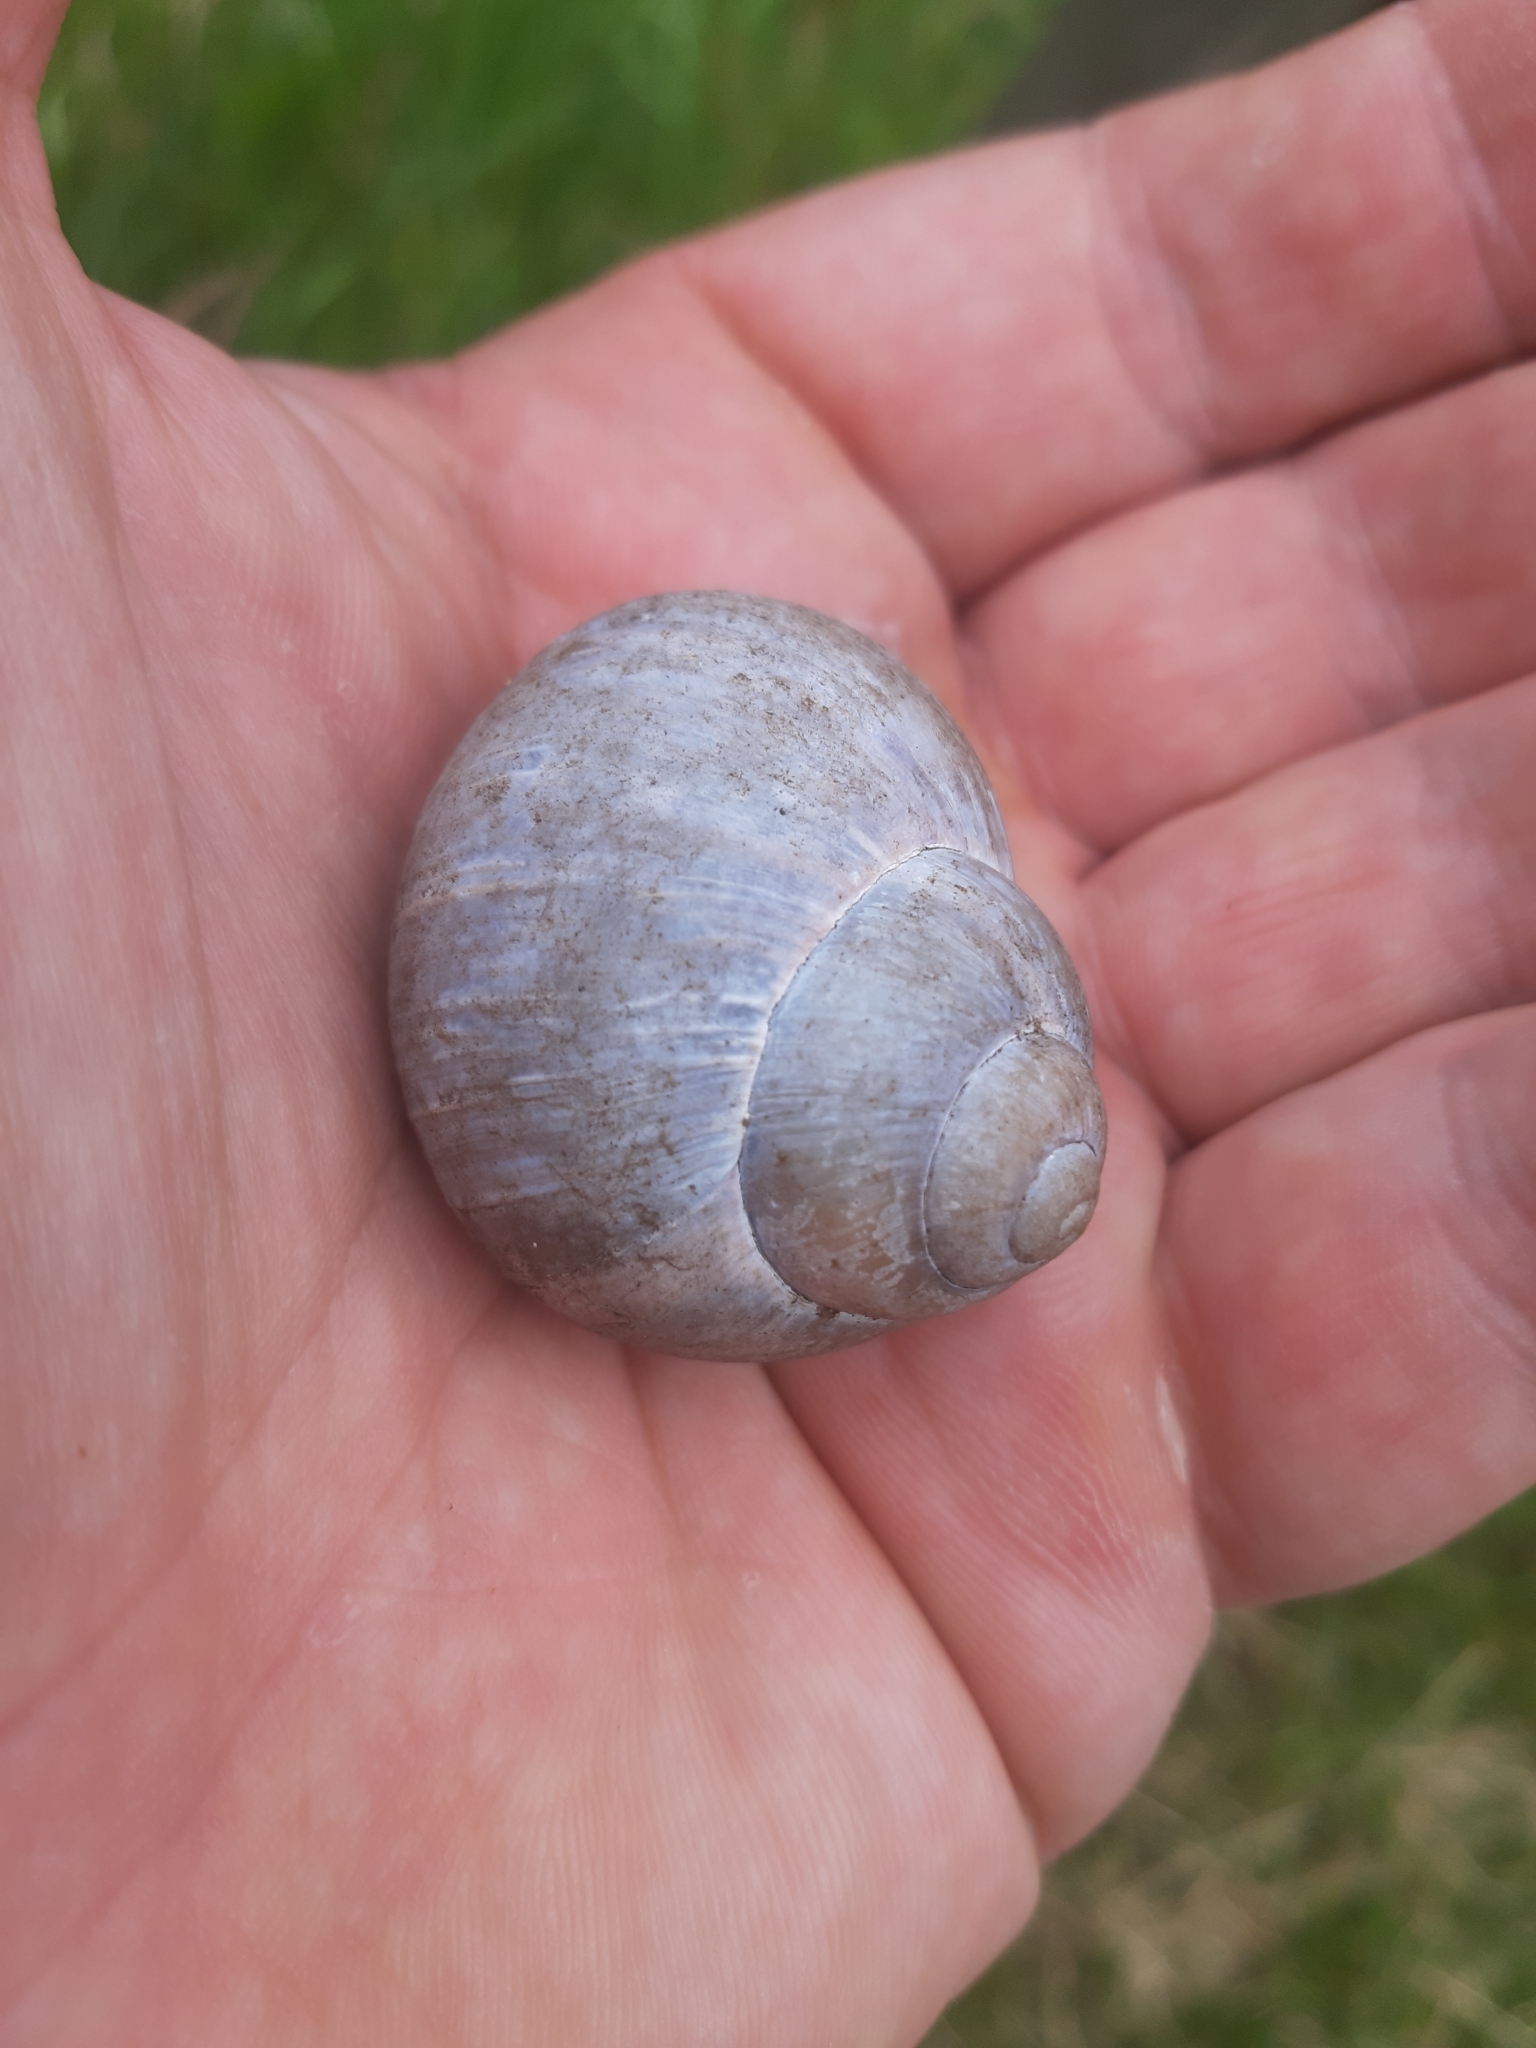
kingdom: Animalia
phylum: Mollusca
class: Gastropoda
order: Stylommatophora
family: Helicidae
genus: Helix
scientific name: Helix pomatia
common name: Roman snail
